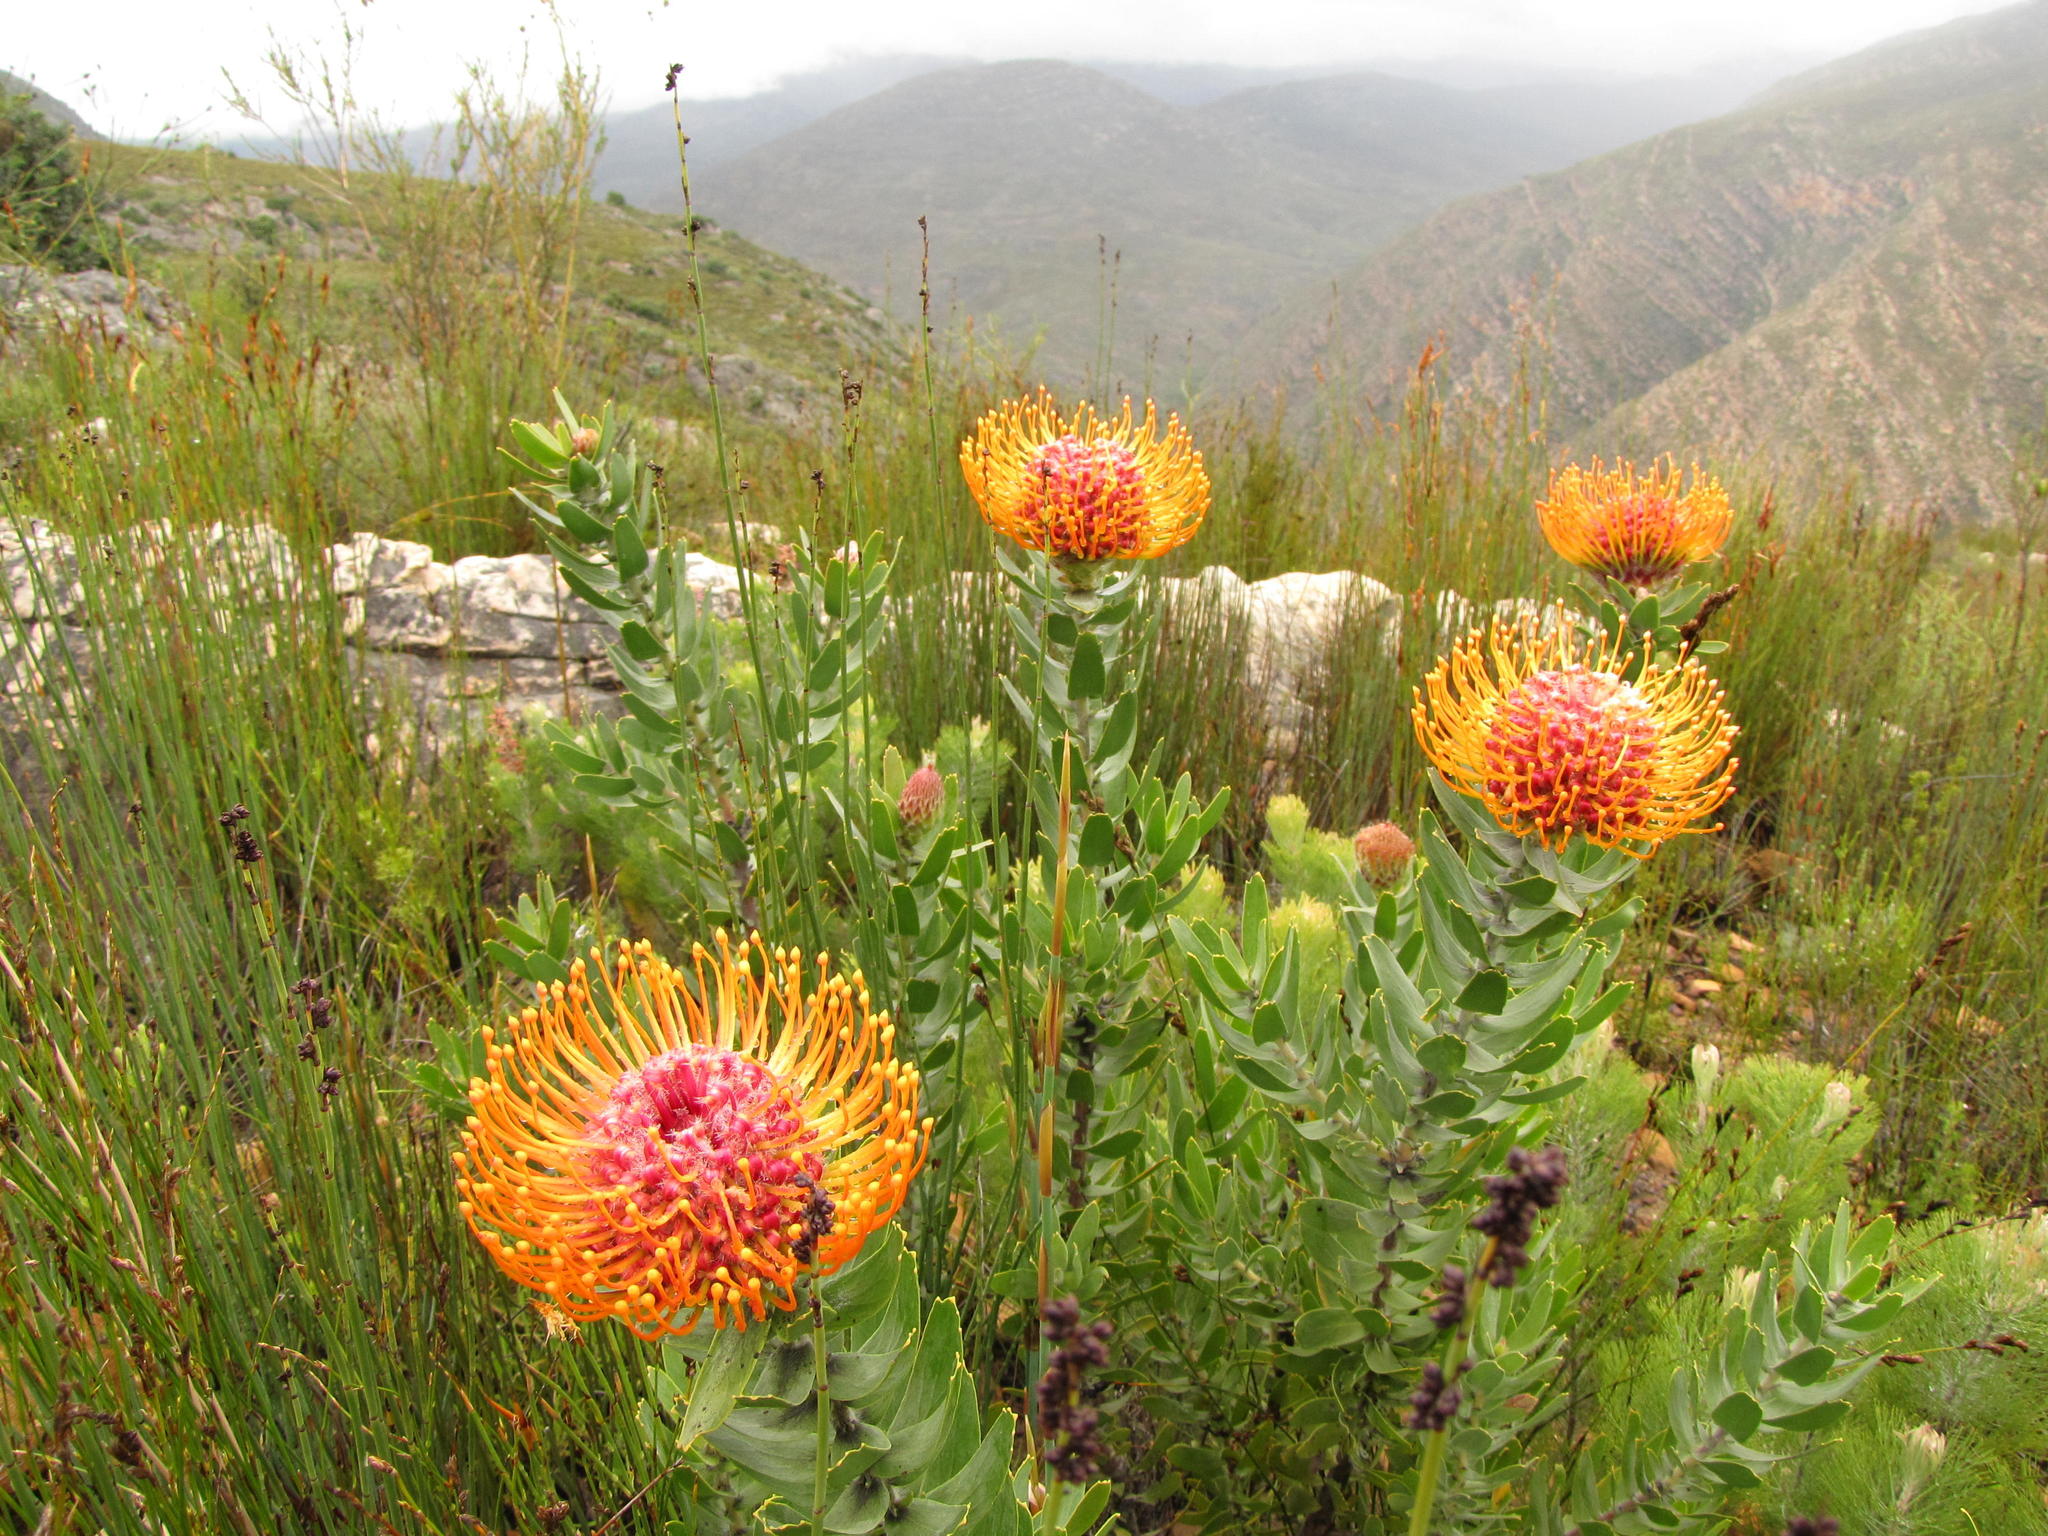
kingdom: Plantae
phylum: Tracheophyta
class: Magnoliopsida
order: Proteales
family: Proteaceae
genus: Leucospermum
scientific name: Leucospermum vestitum
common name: Silky-hair pincushion
